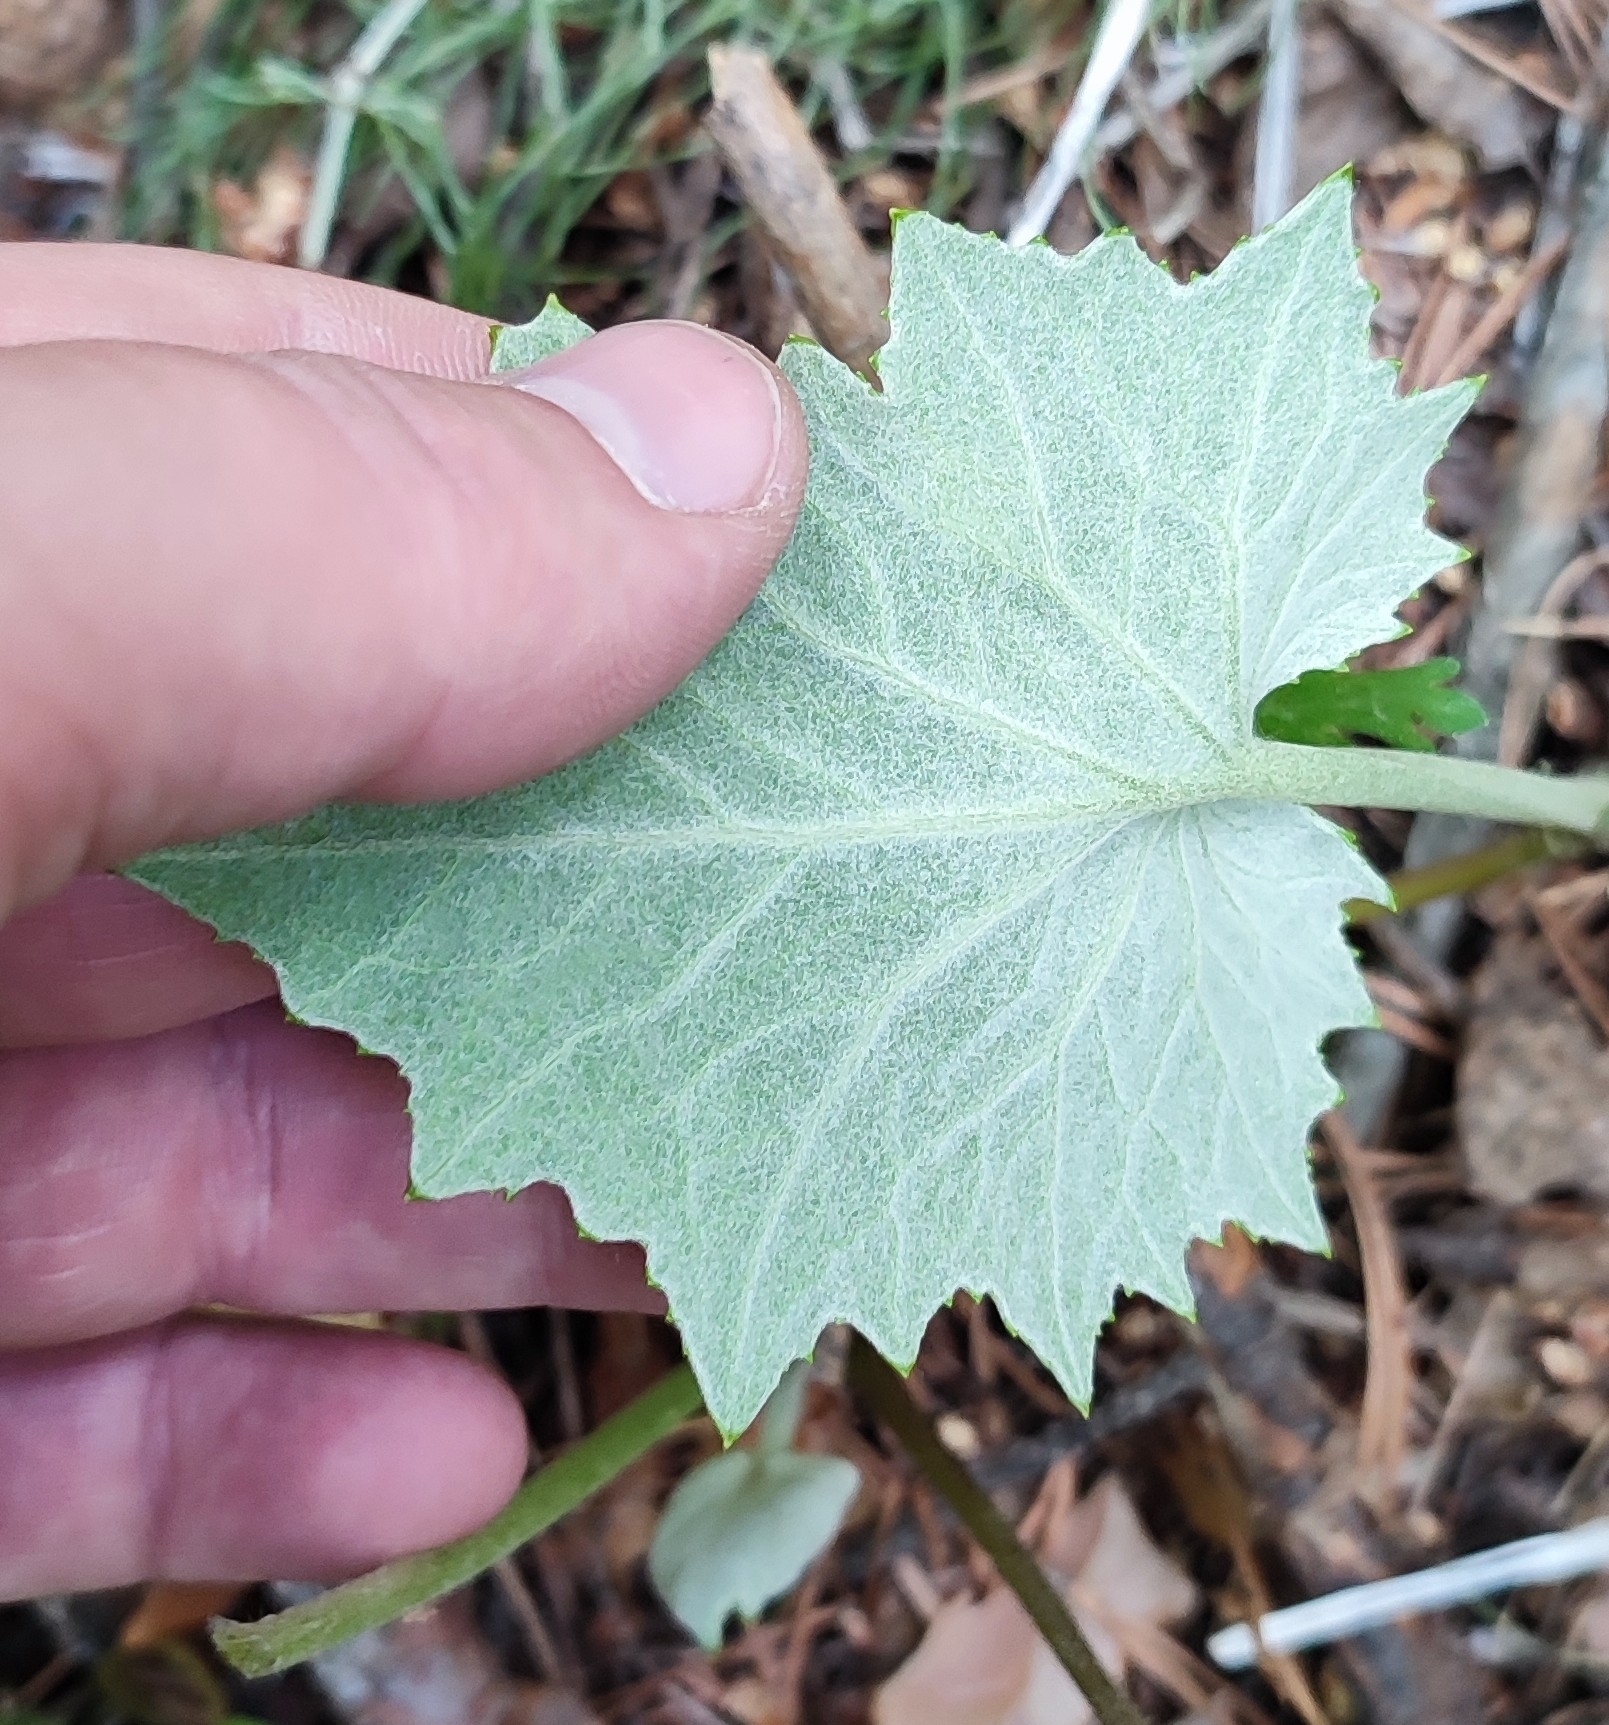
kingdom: Plantae
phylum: Tracheophyta
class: Magnoliopsida
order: Asterales
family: Asteraceae
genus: Tussilago
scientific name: Tussilago farfara
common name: Coltsfoot
